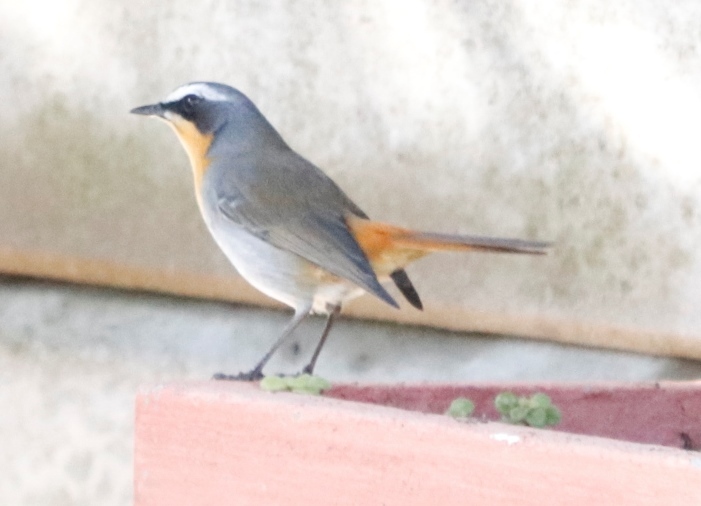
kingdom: Animalia
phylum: Chordata
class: Aves
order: Passeriformes
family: Muscicapidae
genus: Cossypha
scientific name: Cossypha caffra
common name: Cape robin-chat
